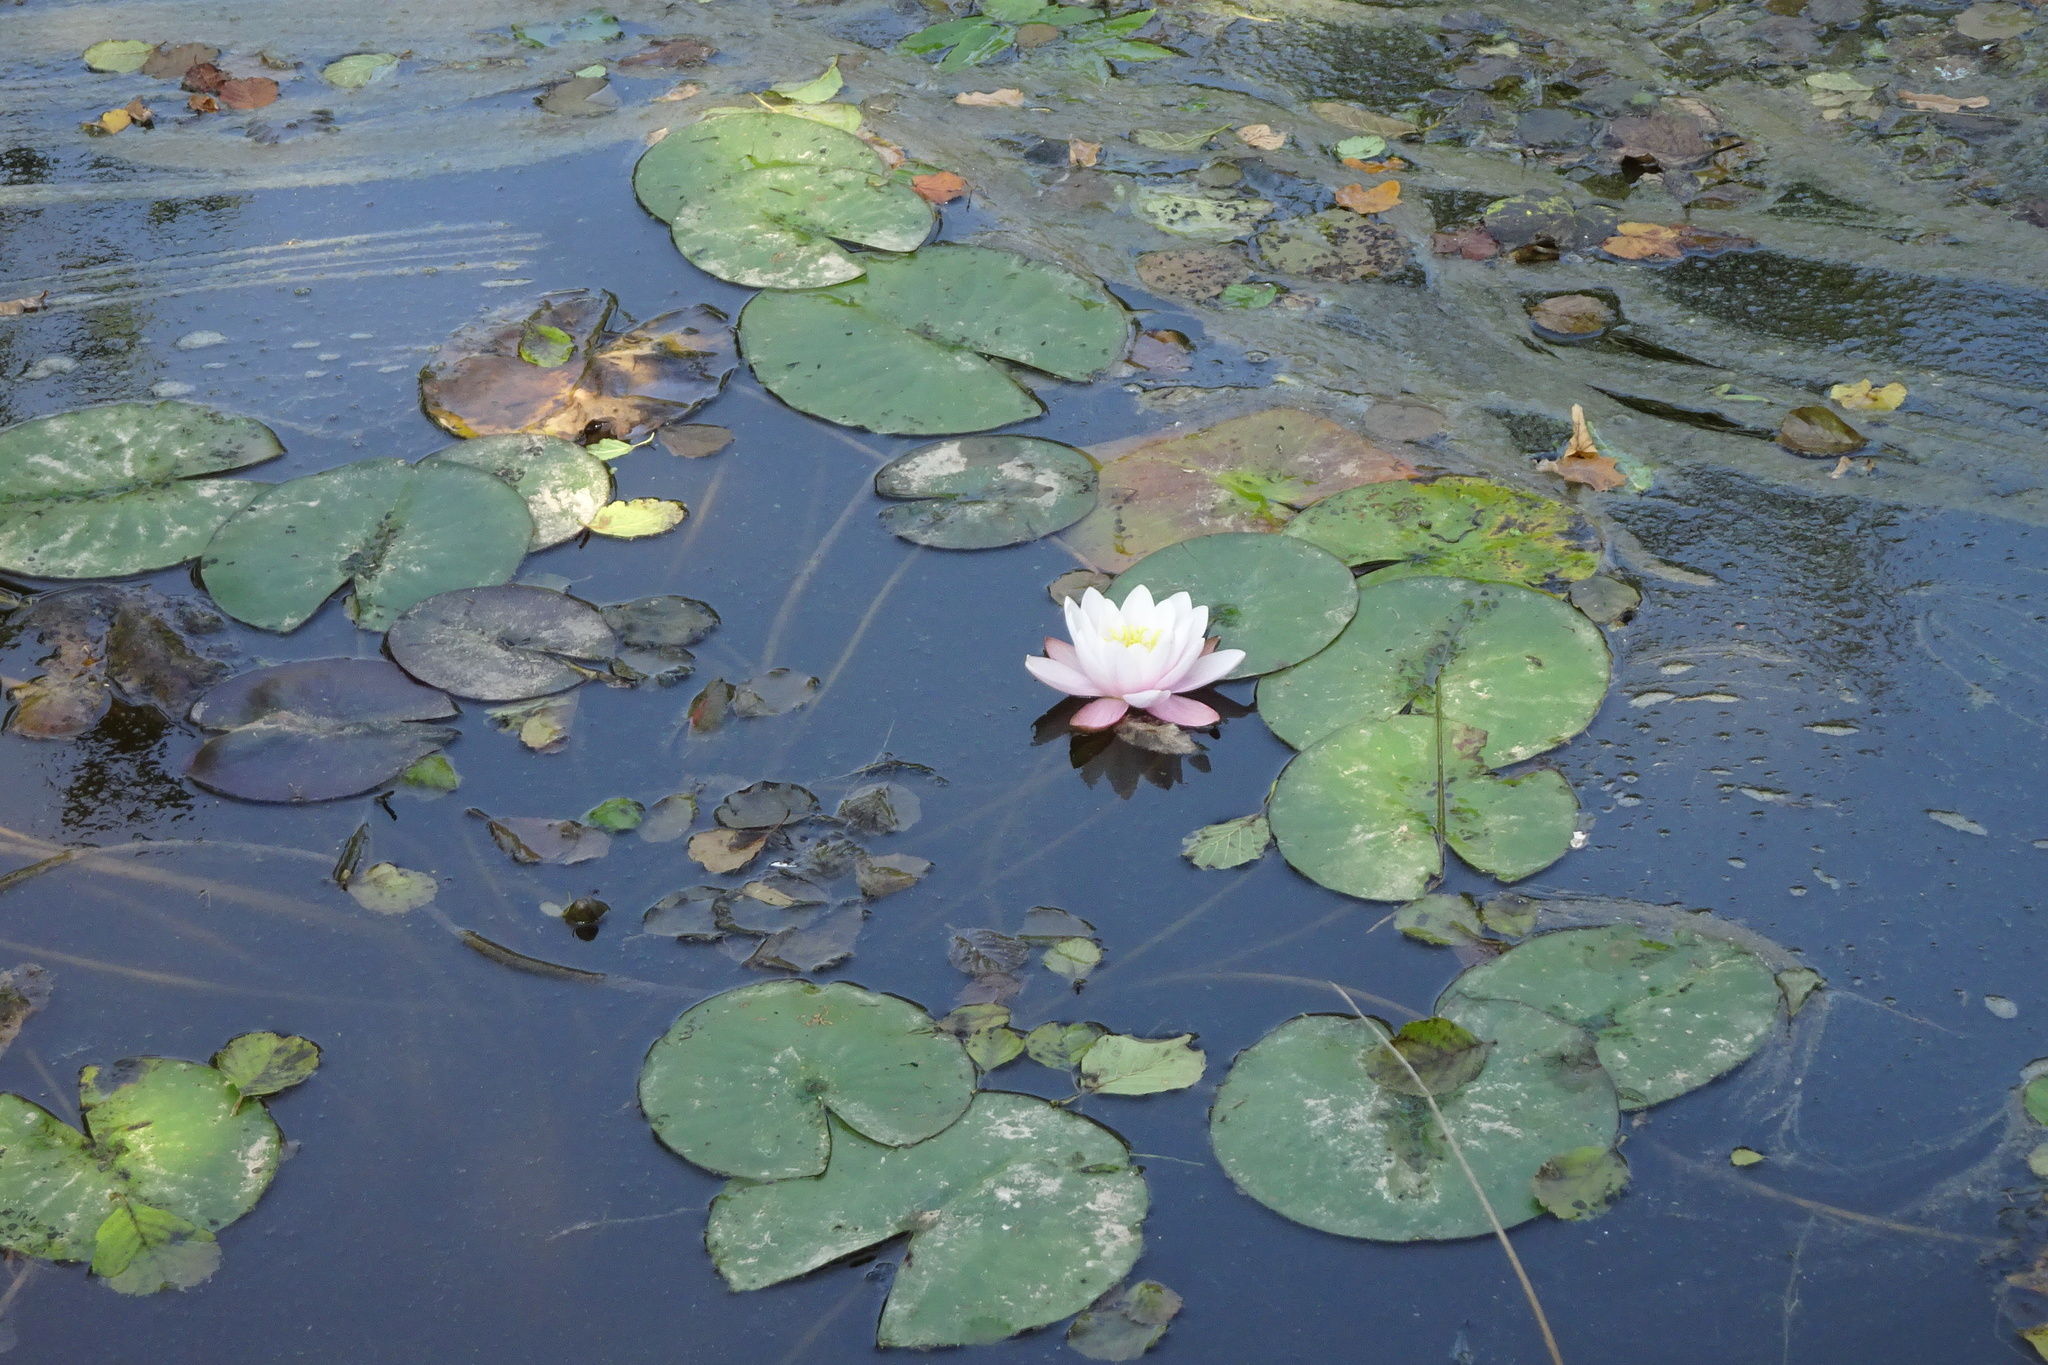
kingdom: Plantae
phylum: Tracheophyta
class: Magnoliopsida
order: Nymphaeales
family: Nymphaeaceae
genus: Nymphaea
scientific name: Nymphaea alba
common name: White water-lily
